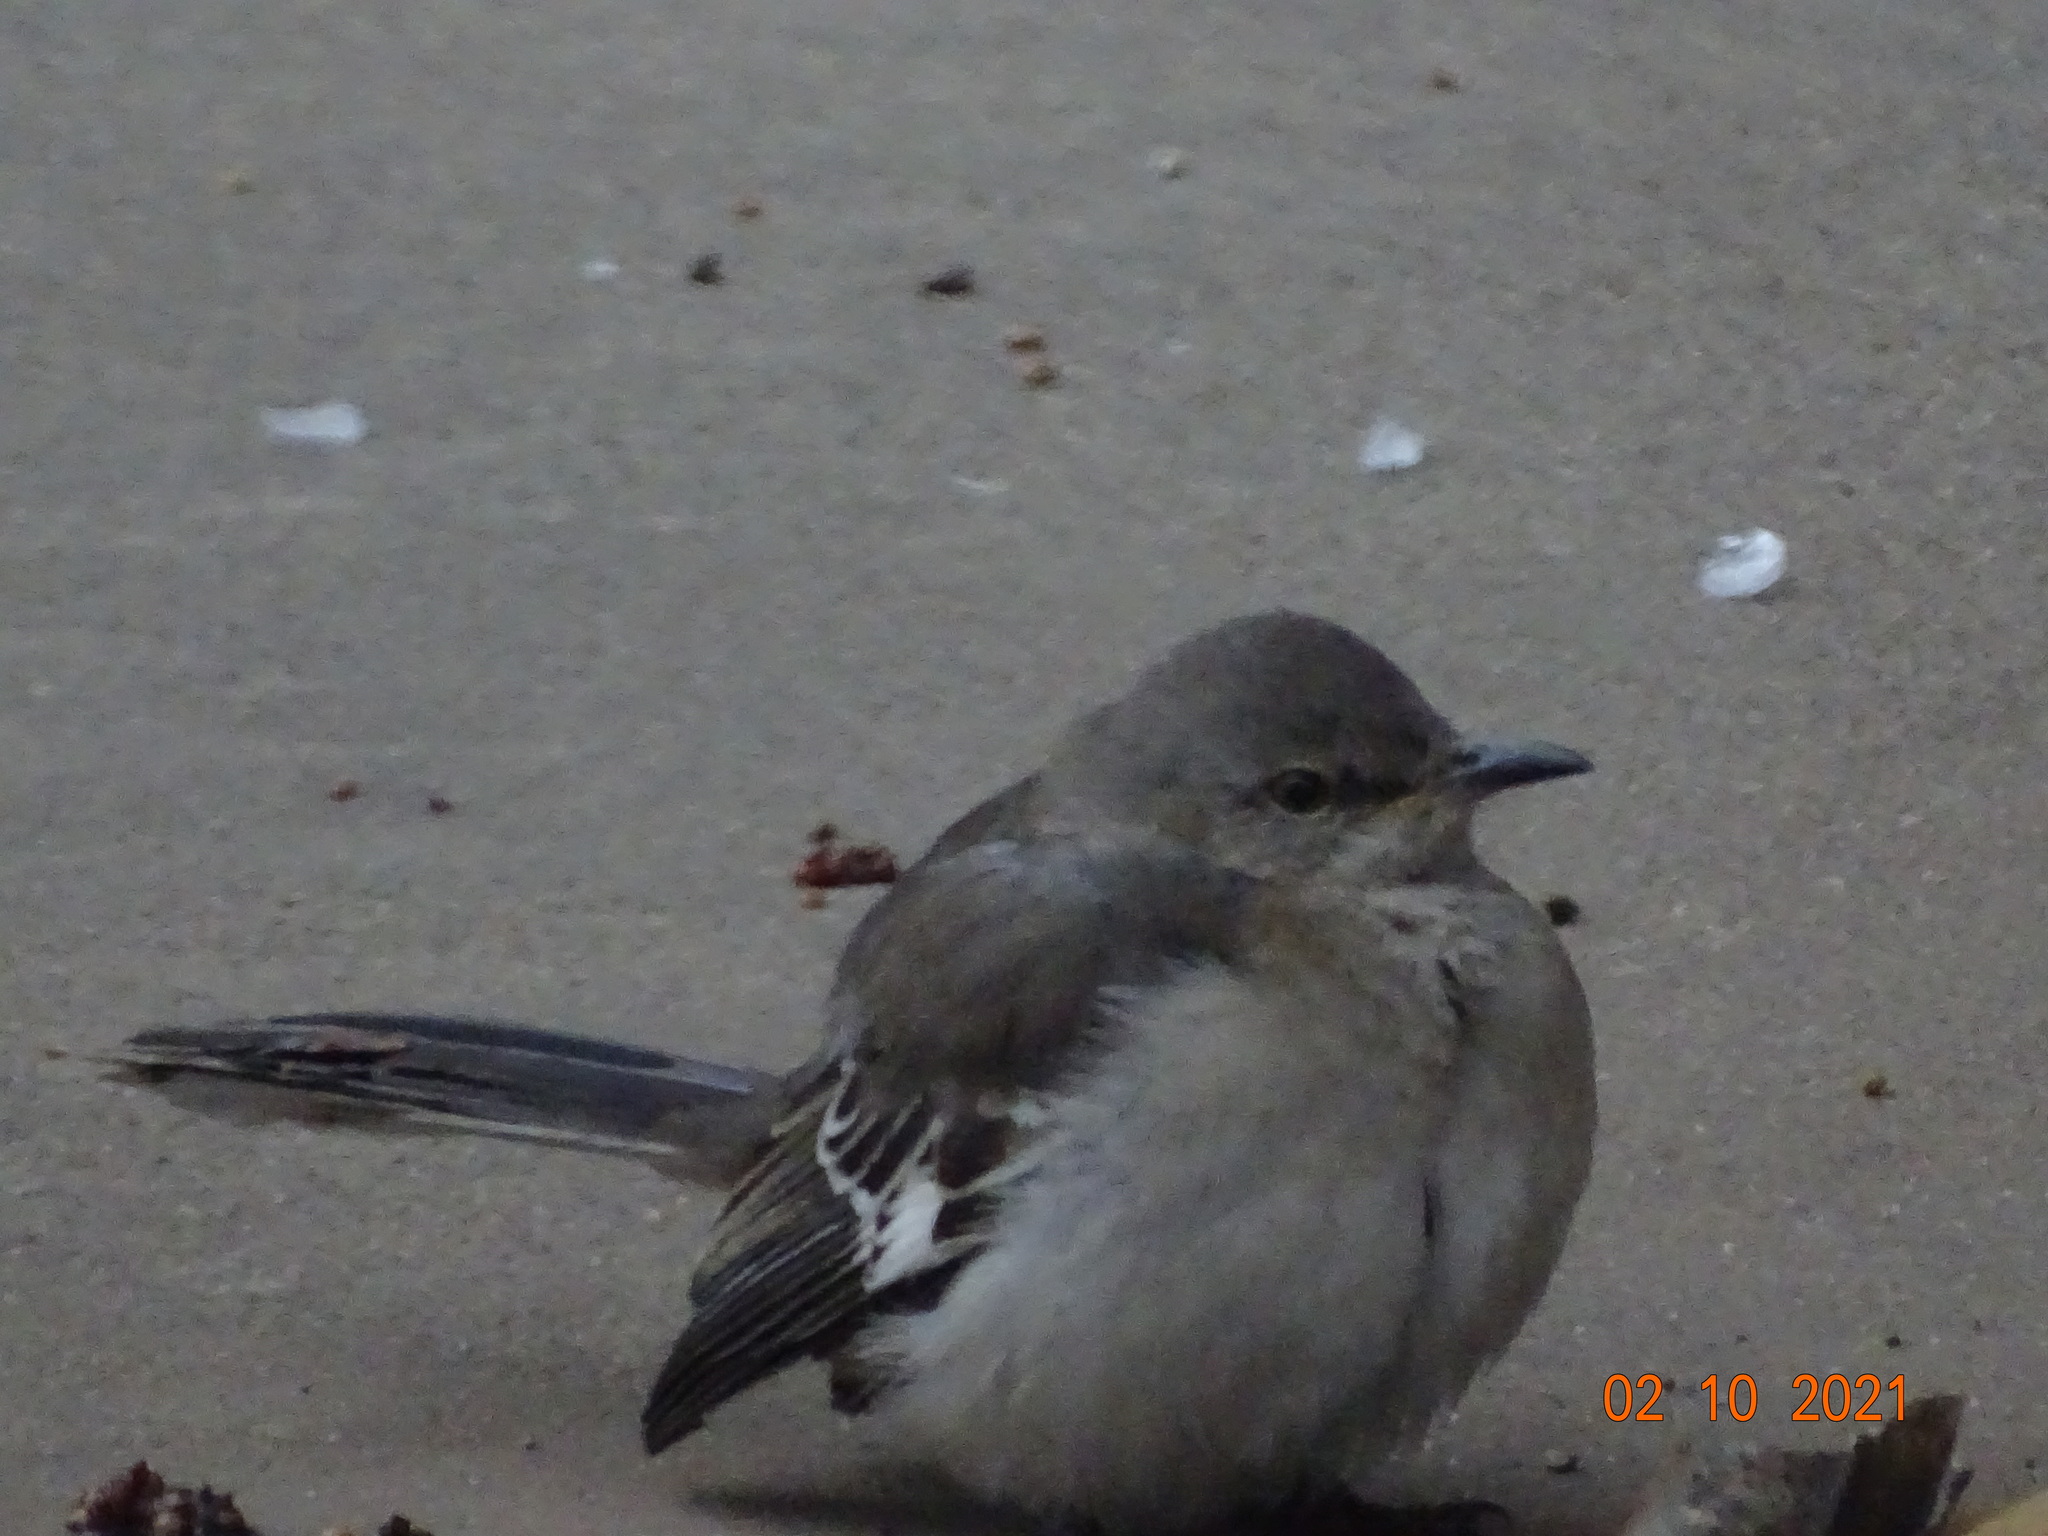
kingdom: Animalia
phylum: Chordata
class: Aves
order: Passeriformes
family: Mimidae
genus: Mimus
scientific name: Mimus polyglottos
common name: Northern mockingbird
